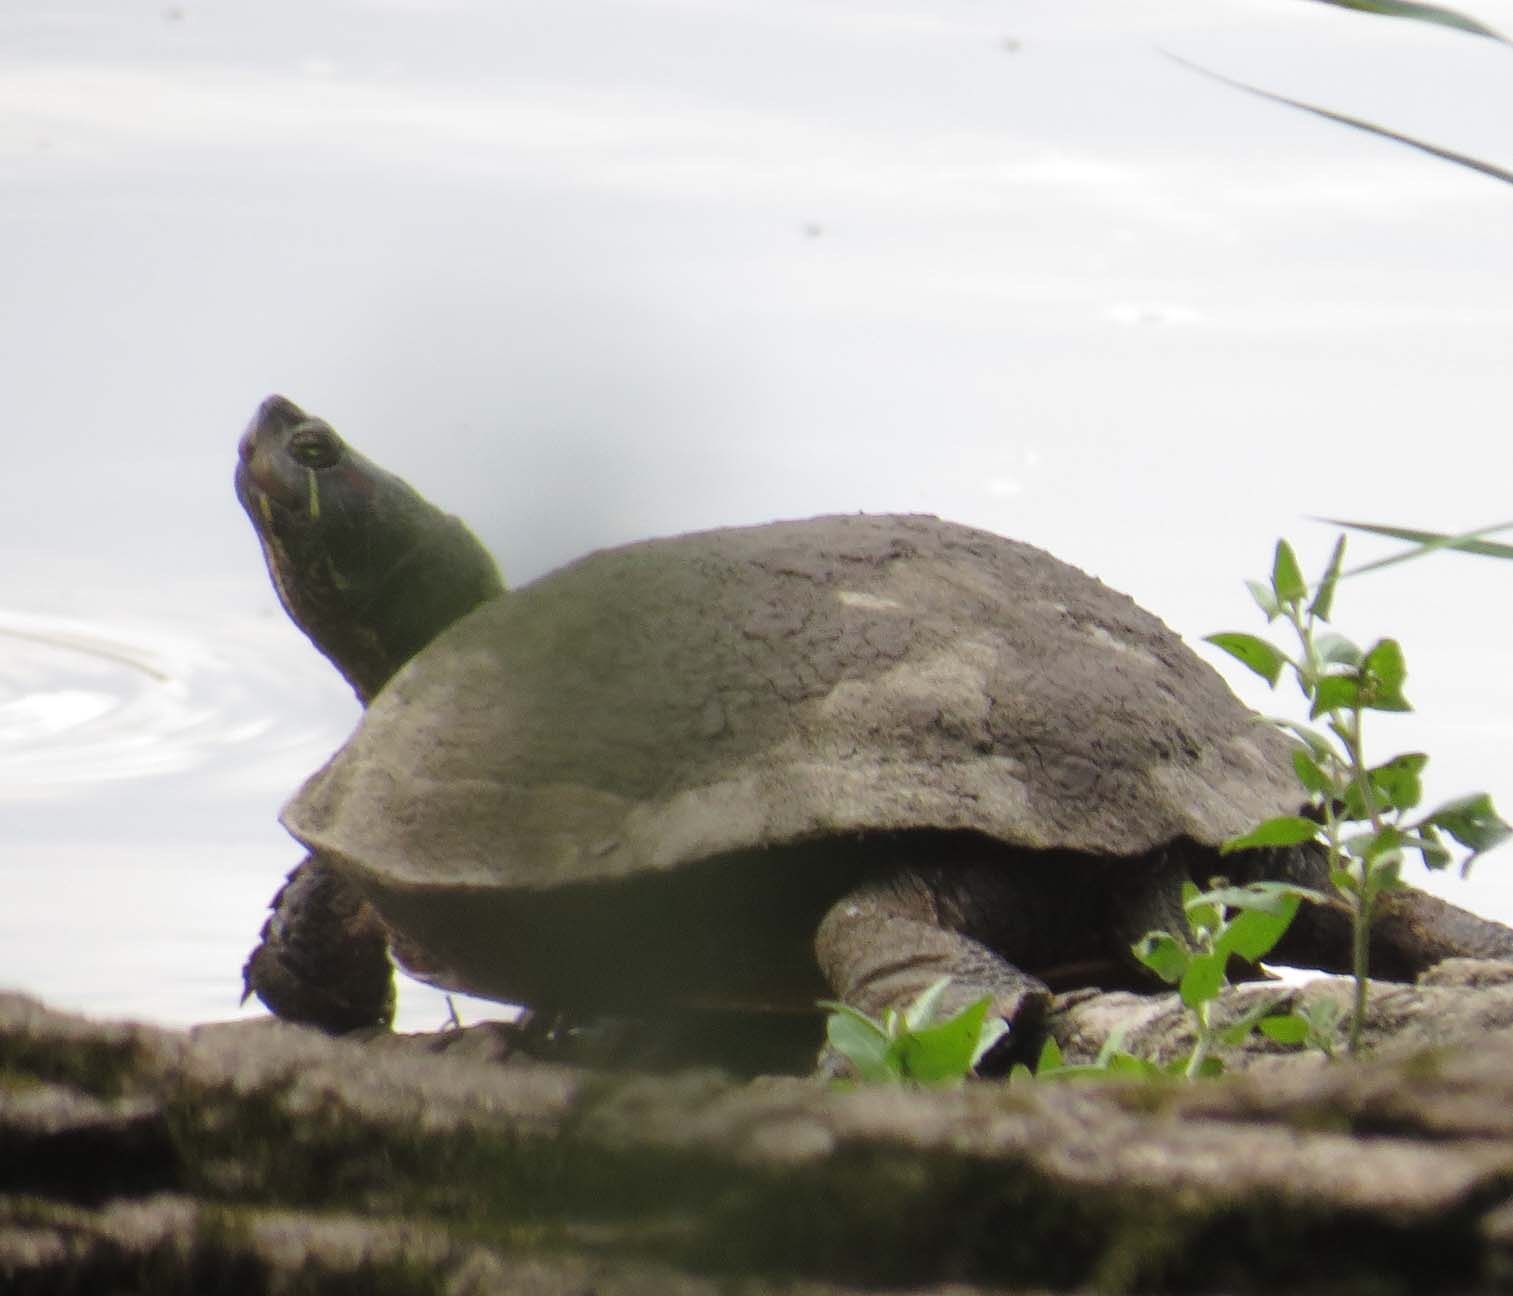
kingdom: Animalia
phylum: Chordata
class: Testudines
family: Emydidae
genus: Trachemys
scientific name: Trachemys scripta
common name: Slider
